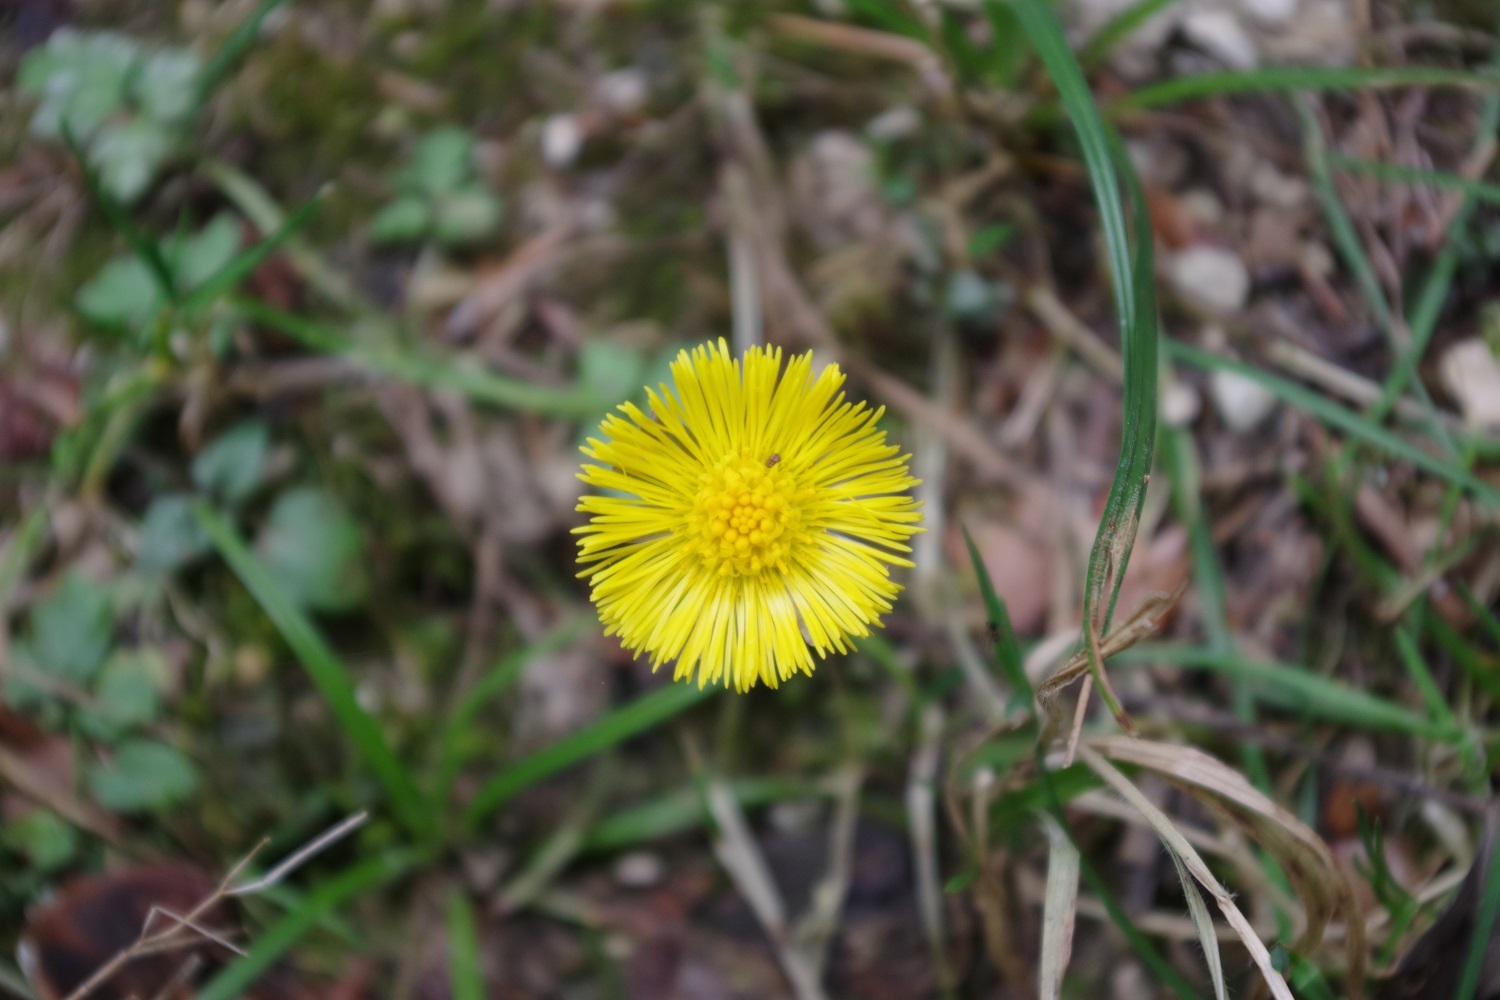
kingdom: Plantae
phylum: Tracheophyta
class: Magnoliopsida
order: Asterales
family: Asteraceae
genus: Tussilago
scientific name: Tussilago farfara
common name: Coltsfoot
